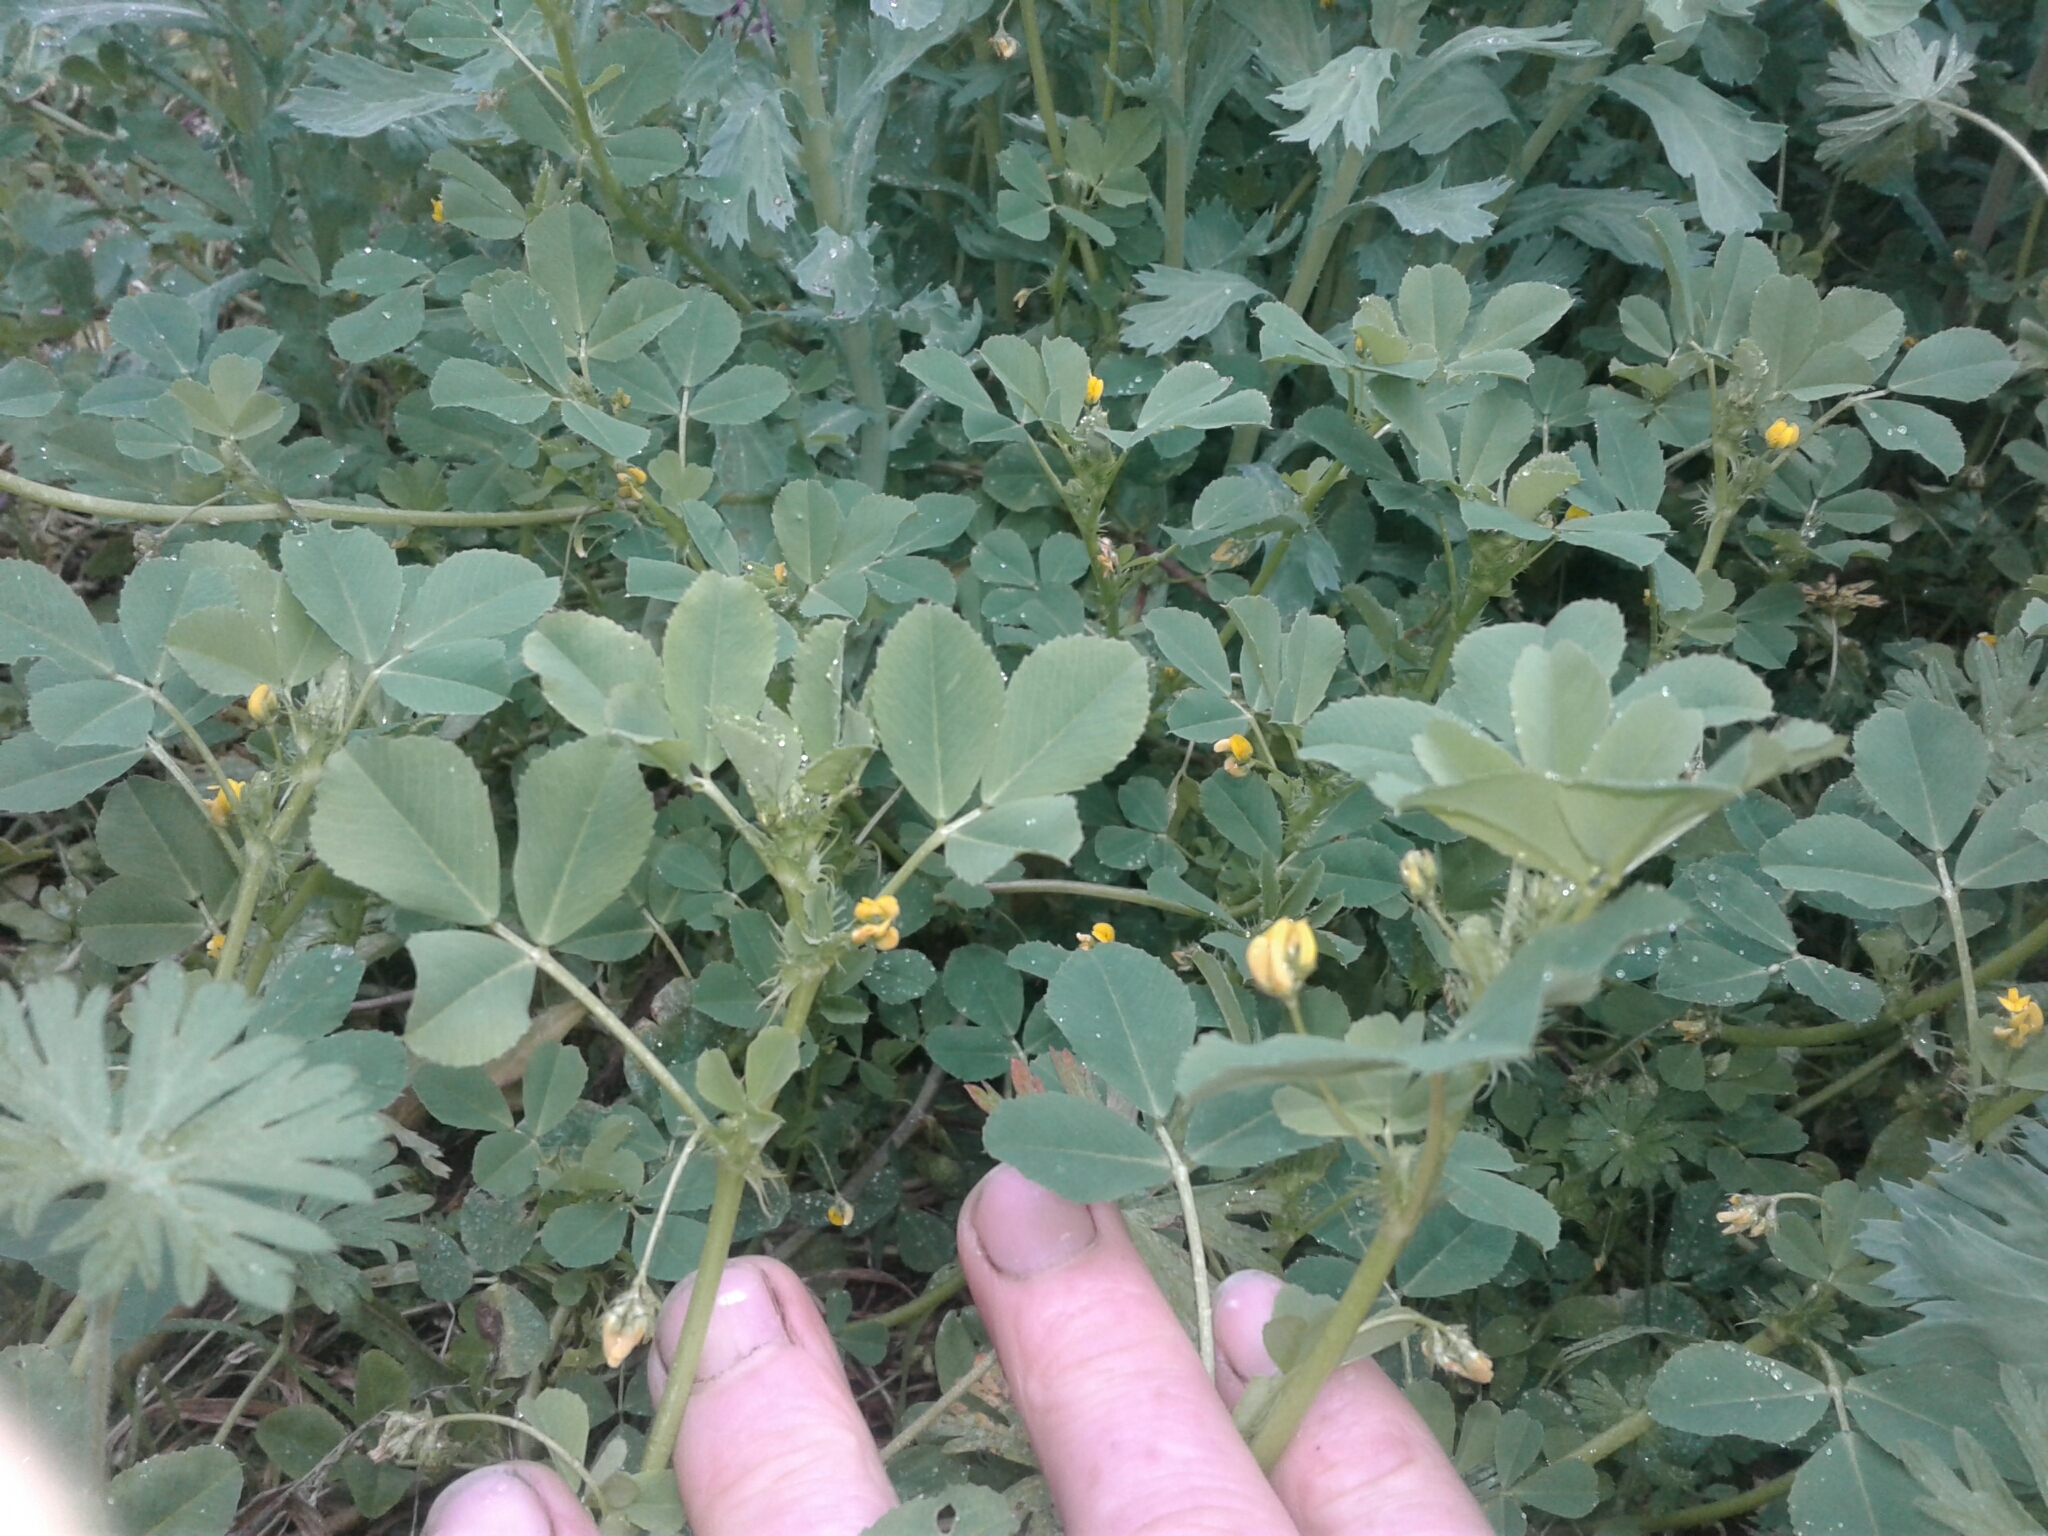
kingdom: Plantae
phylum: Tracheophyta
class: Magnoliopsida
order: Fabales
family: Fabaceae
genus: Medicago
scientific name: Medicago polymorpha
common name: Burclover
